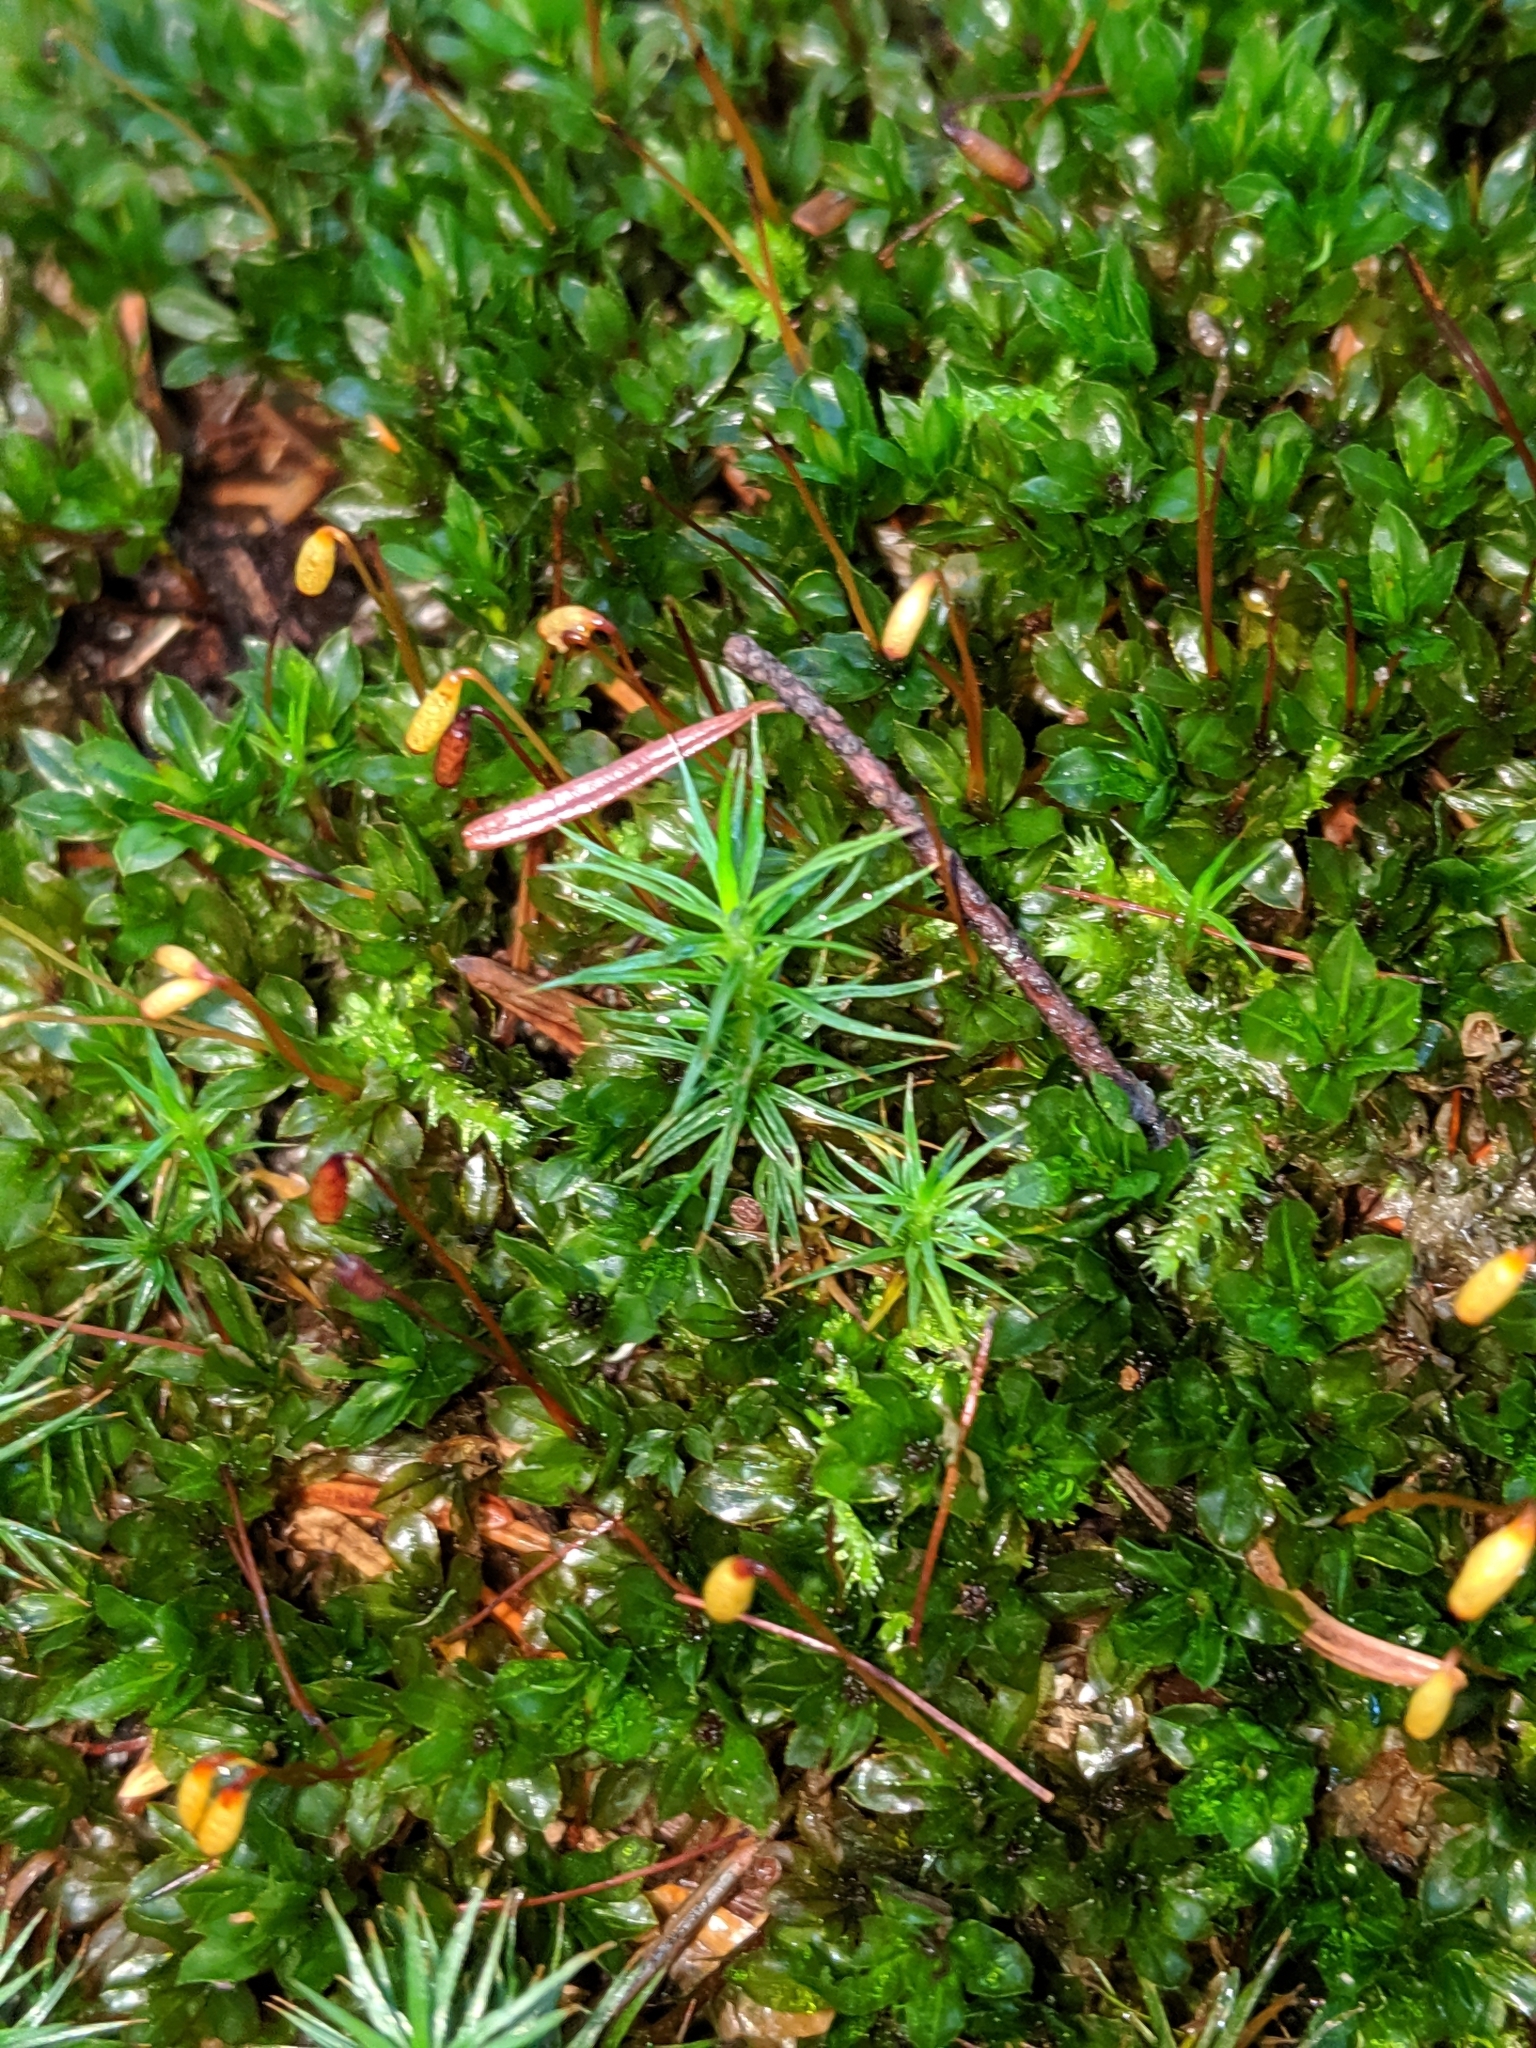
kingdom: Plantae
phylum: Bryophyta
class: Polytrichopsida
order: Polytrichales
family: Polytrichaceae
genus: Polytrichum
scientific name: Polytrichum juniperinum
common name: Juniper haircap moss
